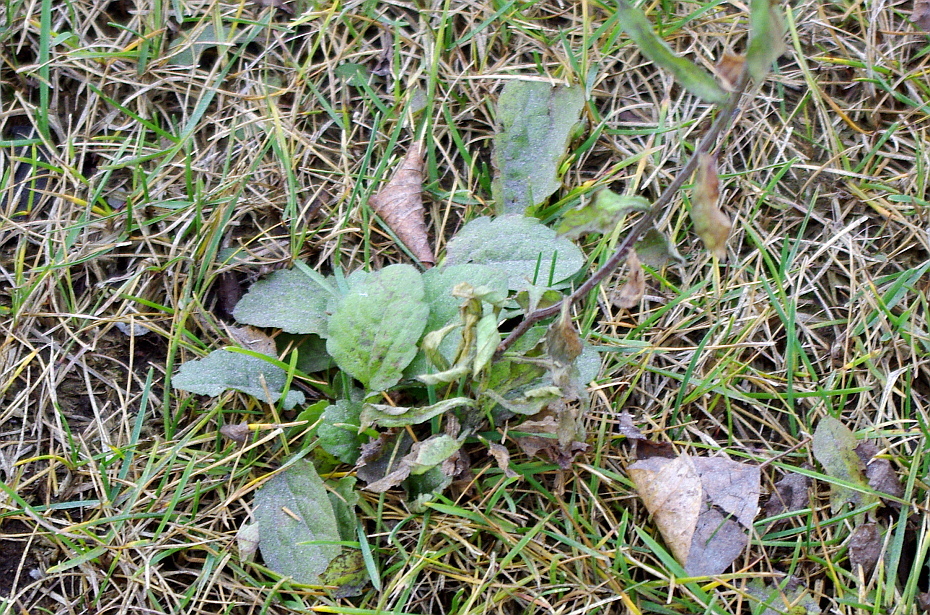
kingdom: Plantae
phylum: Tracheophyta
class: Magnoliopsida
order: Asterales
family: Asteraceae
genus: Erigeron
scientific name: Erigeron annuus
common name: Tall fleabane
